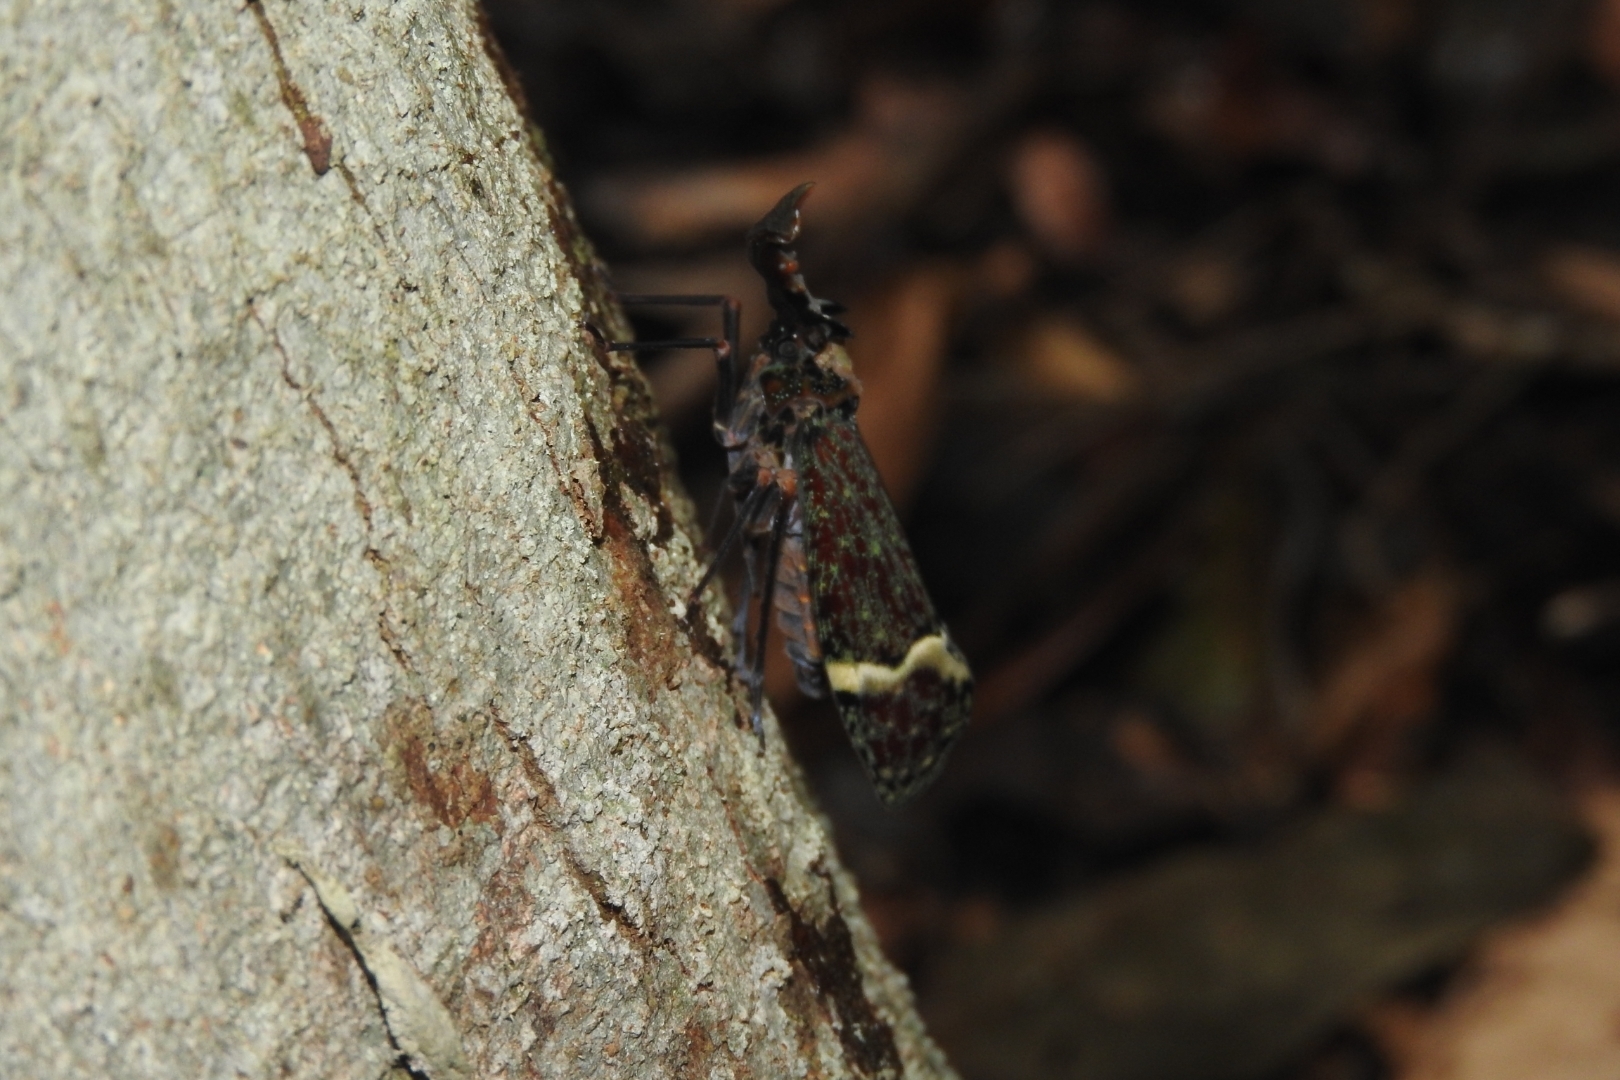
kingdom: Animalia
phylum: Arthropoda
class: Insecta
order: Hemiptera
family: Fulgoridae
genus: Phrictus
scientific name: Phrictus tripartitus
